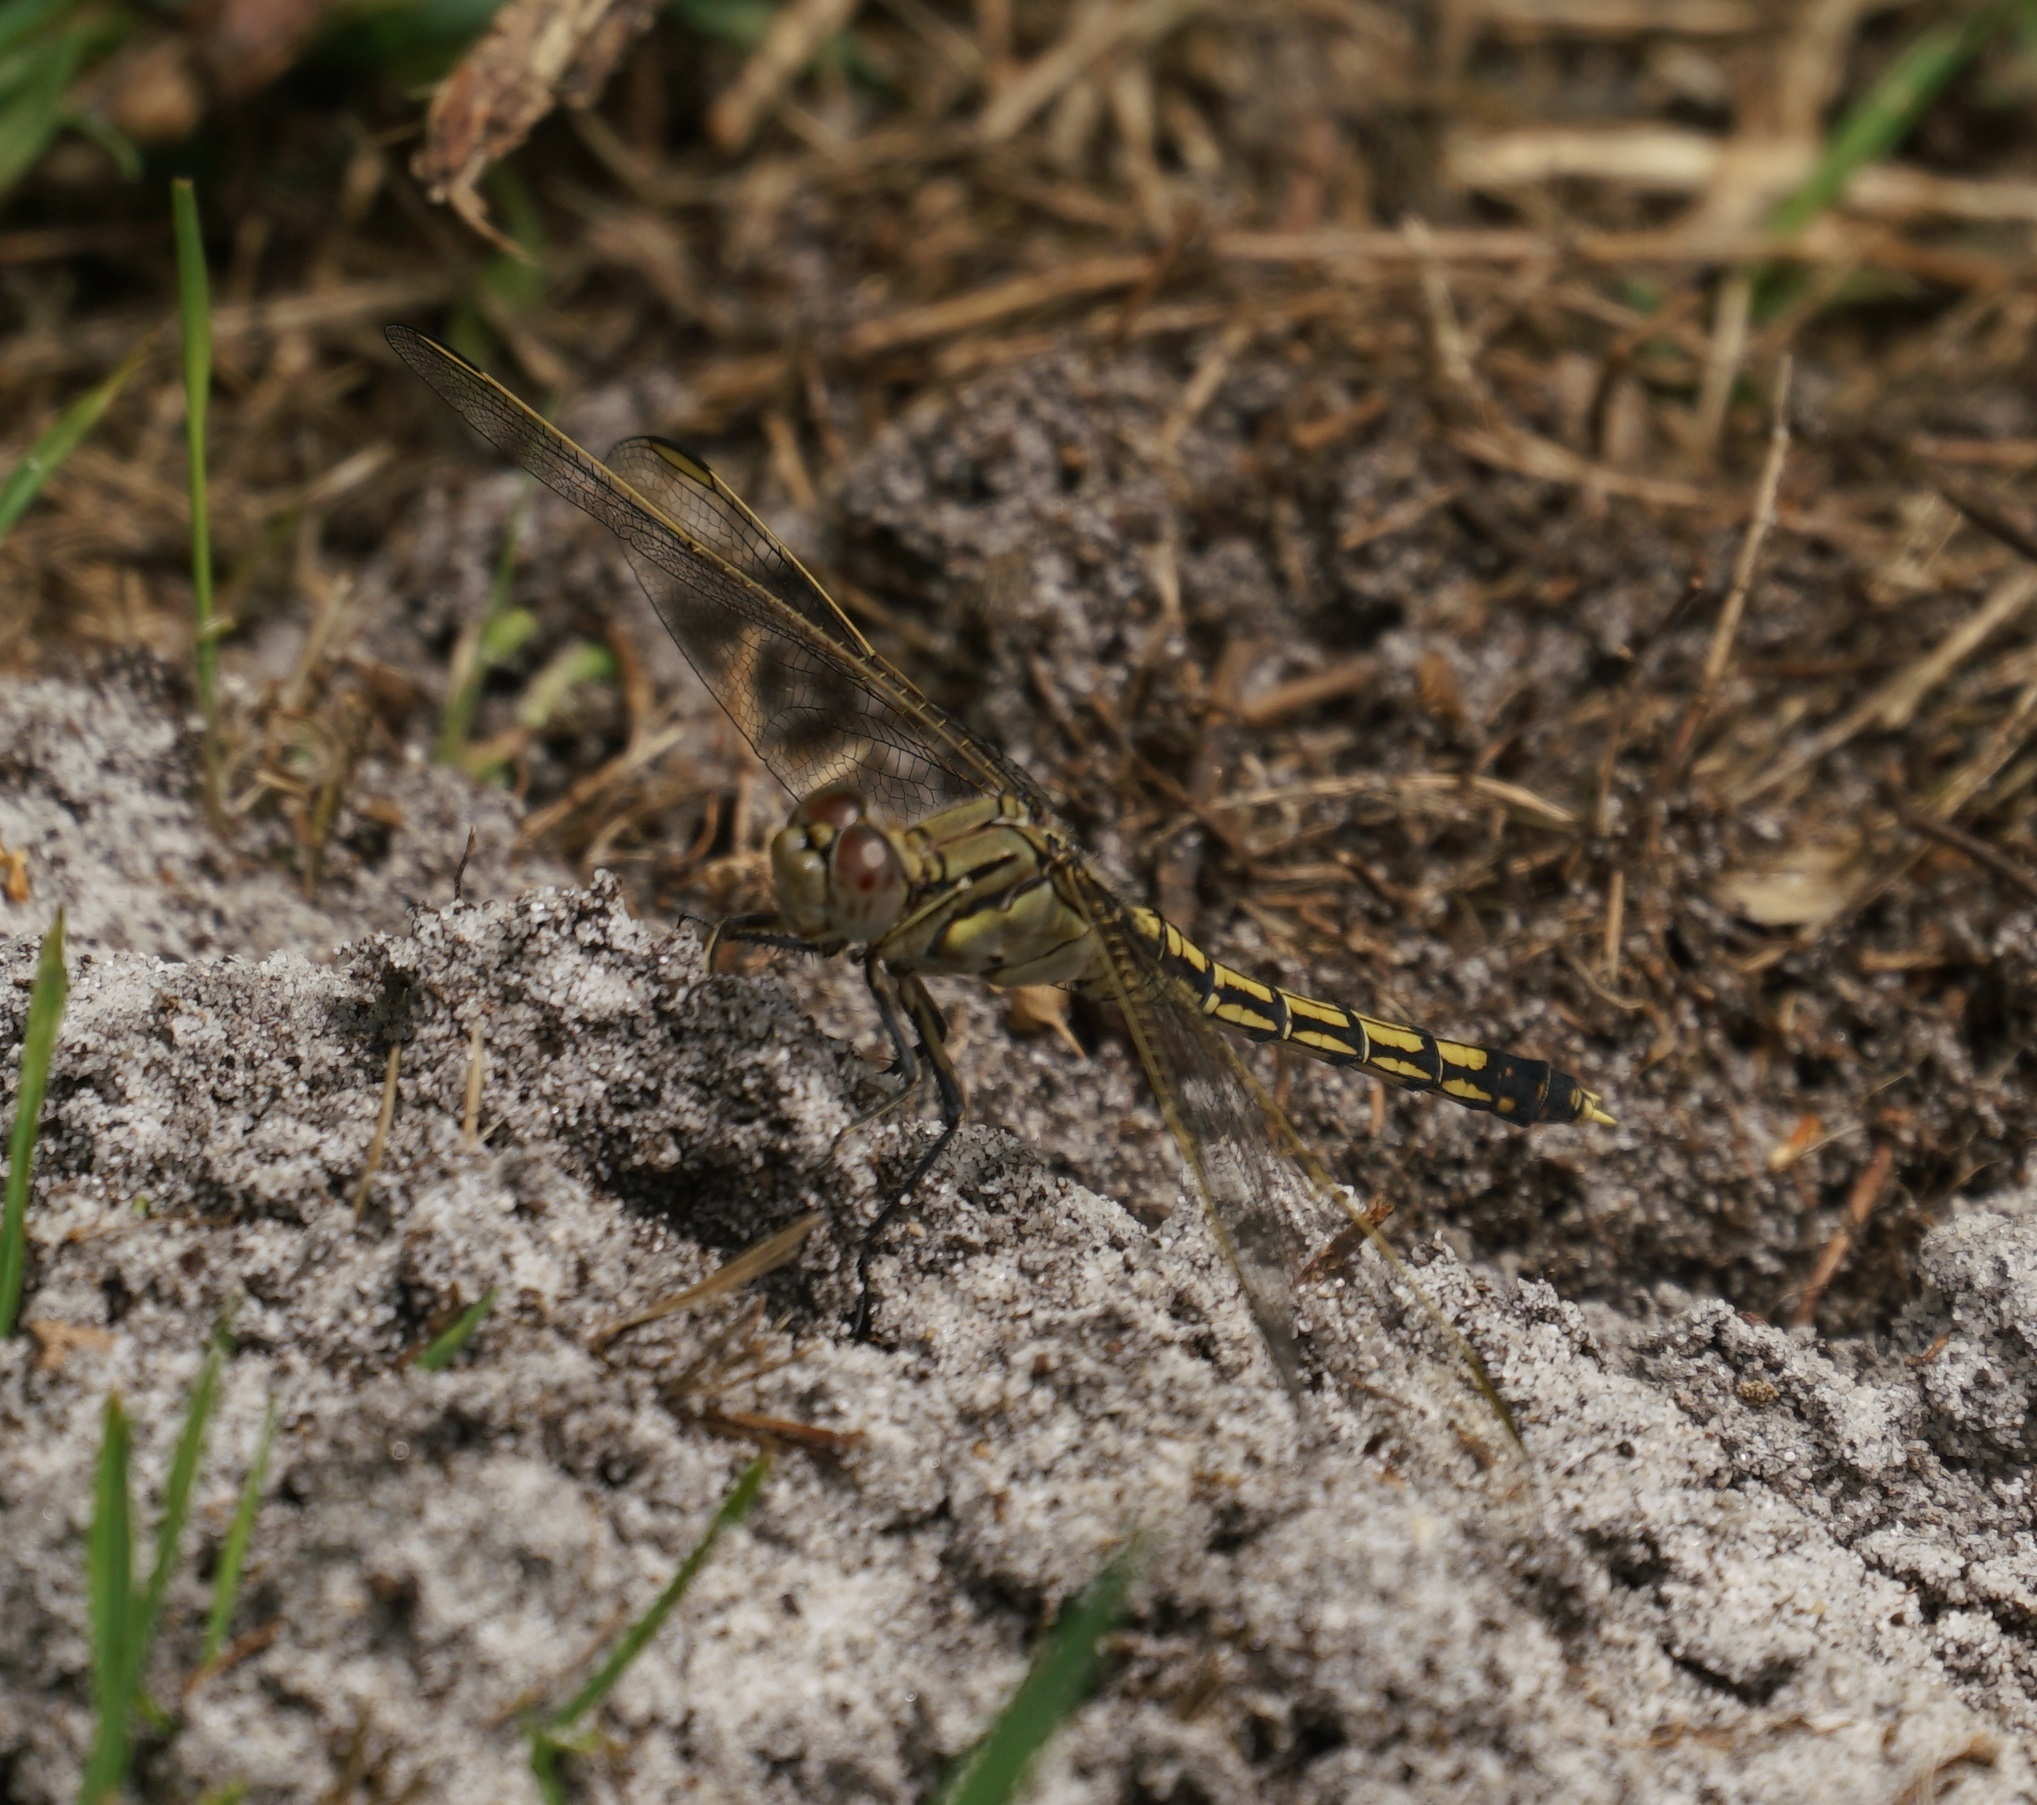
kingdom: Animalia
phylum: Arthropoda
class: Insecta
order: Odonata
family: Libellulidae
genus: Orthetrum
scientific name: Orthetrum caledonicum
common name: Blue skimmer
